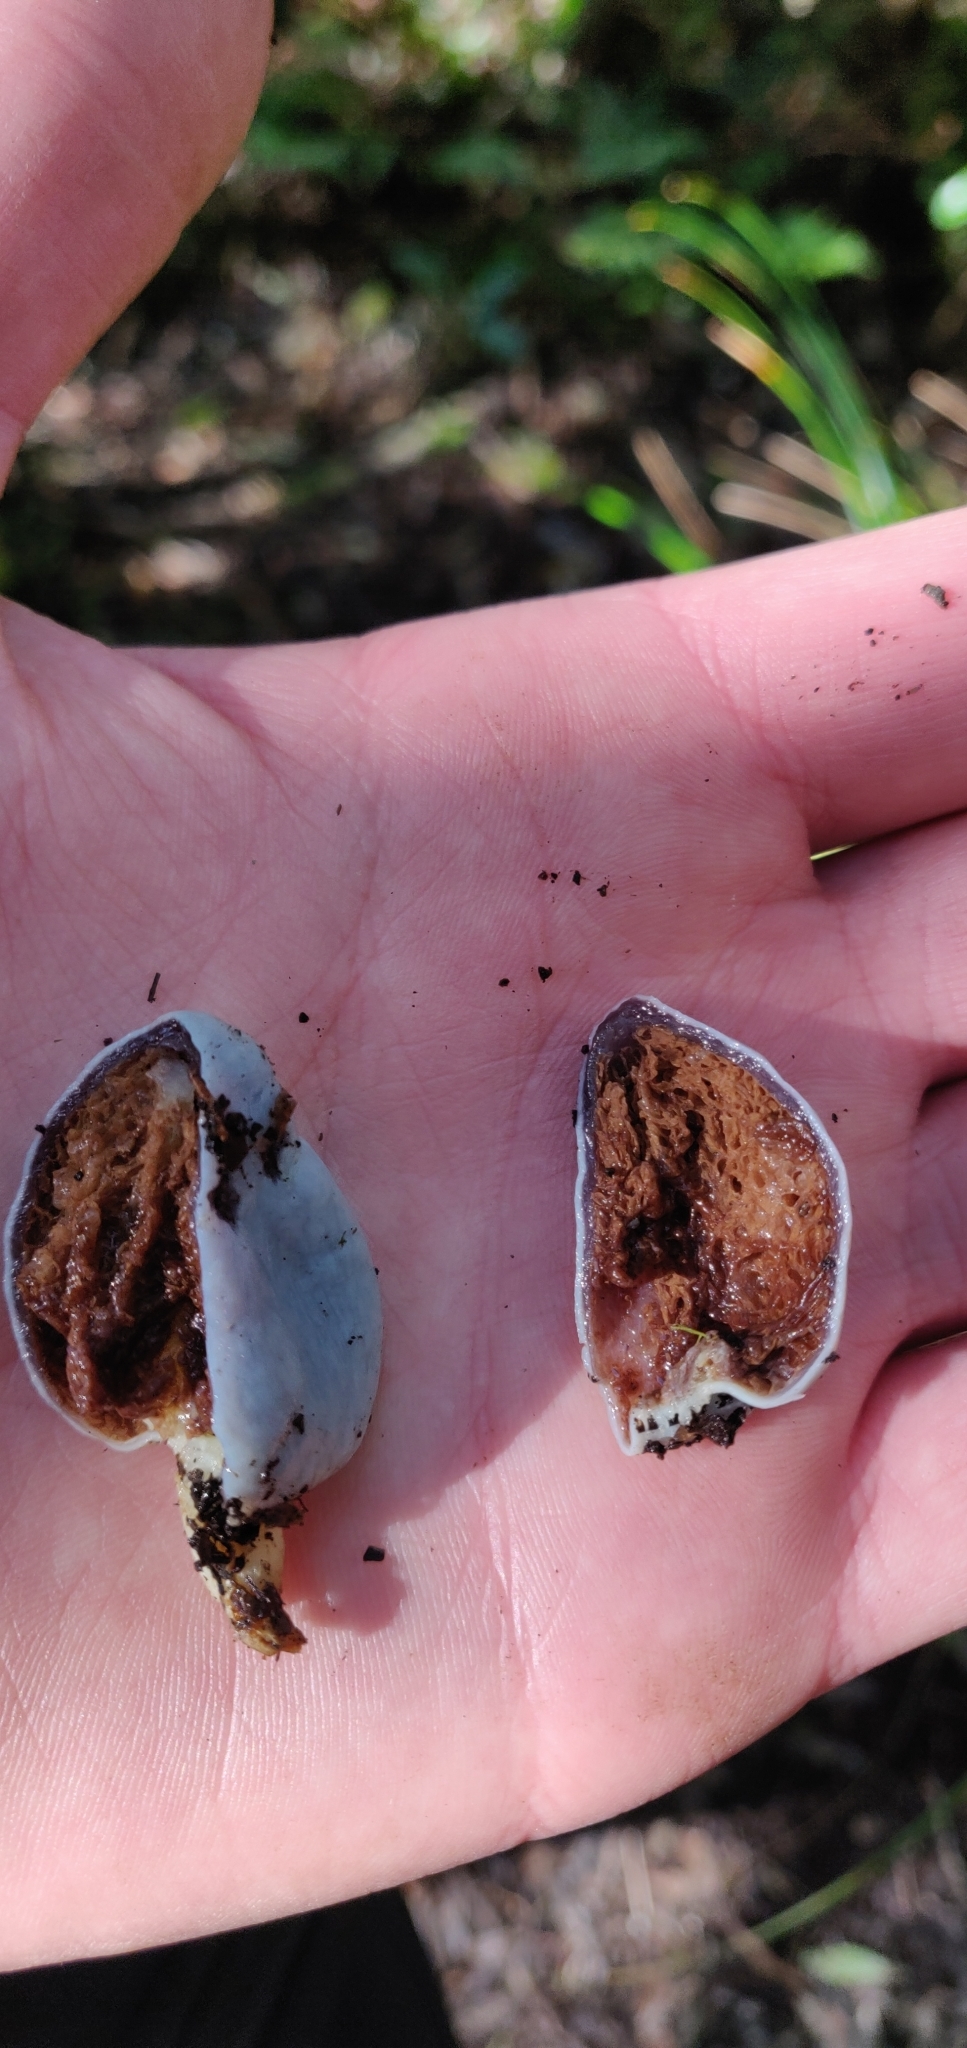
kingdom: Fungi
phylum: Basidiomycota
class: Agaricomycetes
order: Agaricales
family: Agaricaceae
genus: Clavogaster
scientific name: Clavogaster virescens
